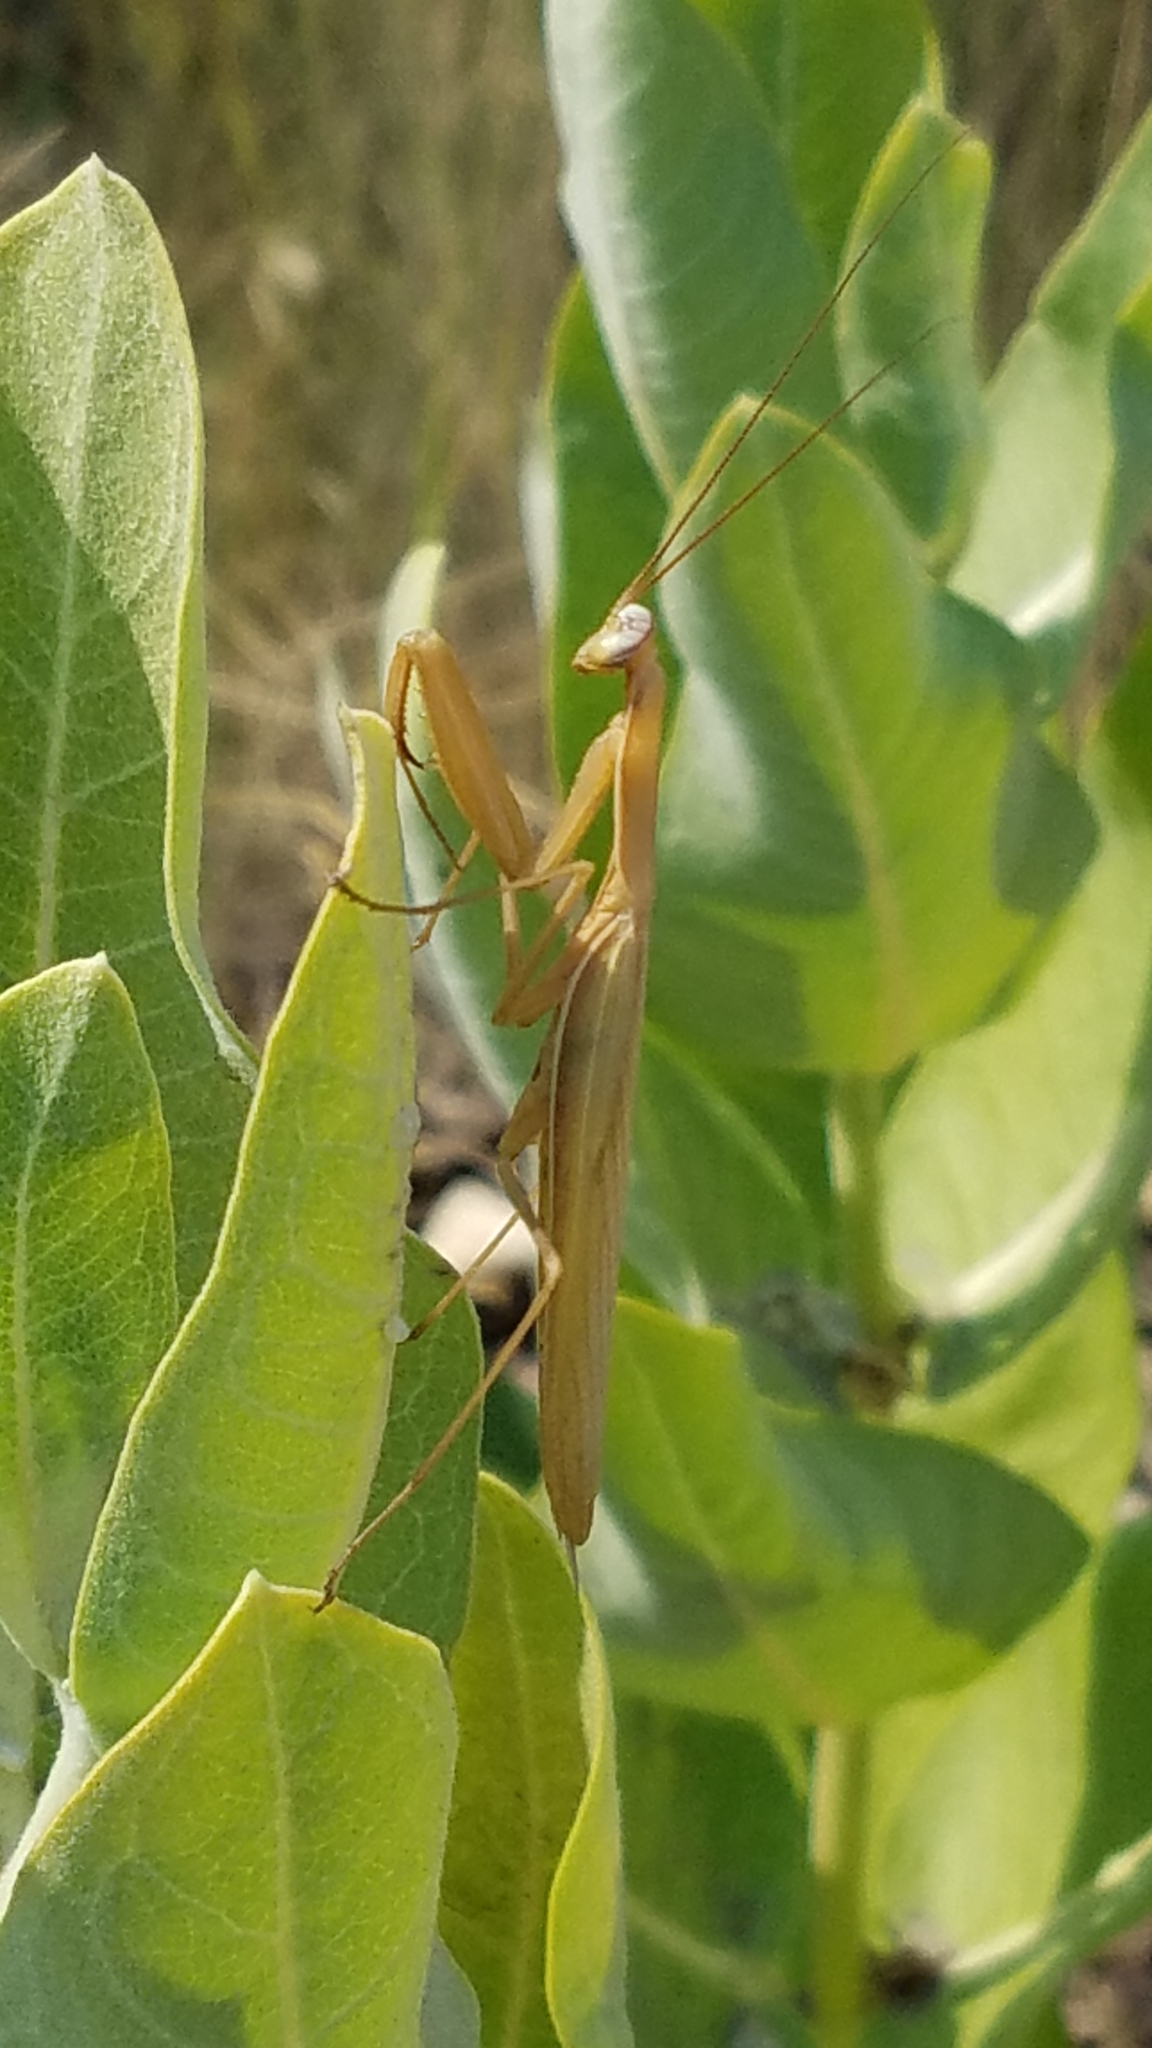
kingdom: Animalia
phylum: Arthropoda
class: Insecta
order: Mantodea
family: Mantidae
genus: Mantis
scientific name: Mantis religiosa
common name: Praying mantis
